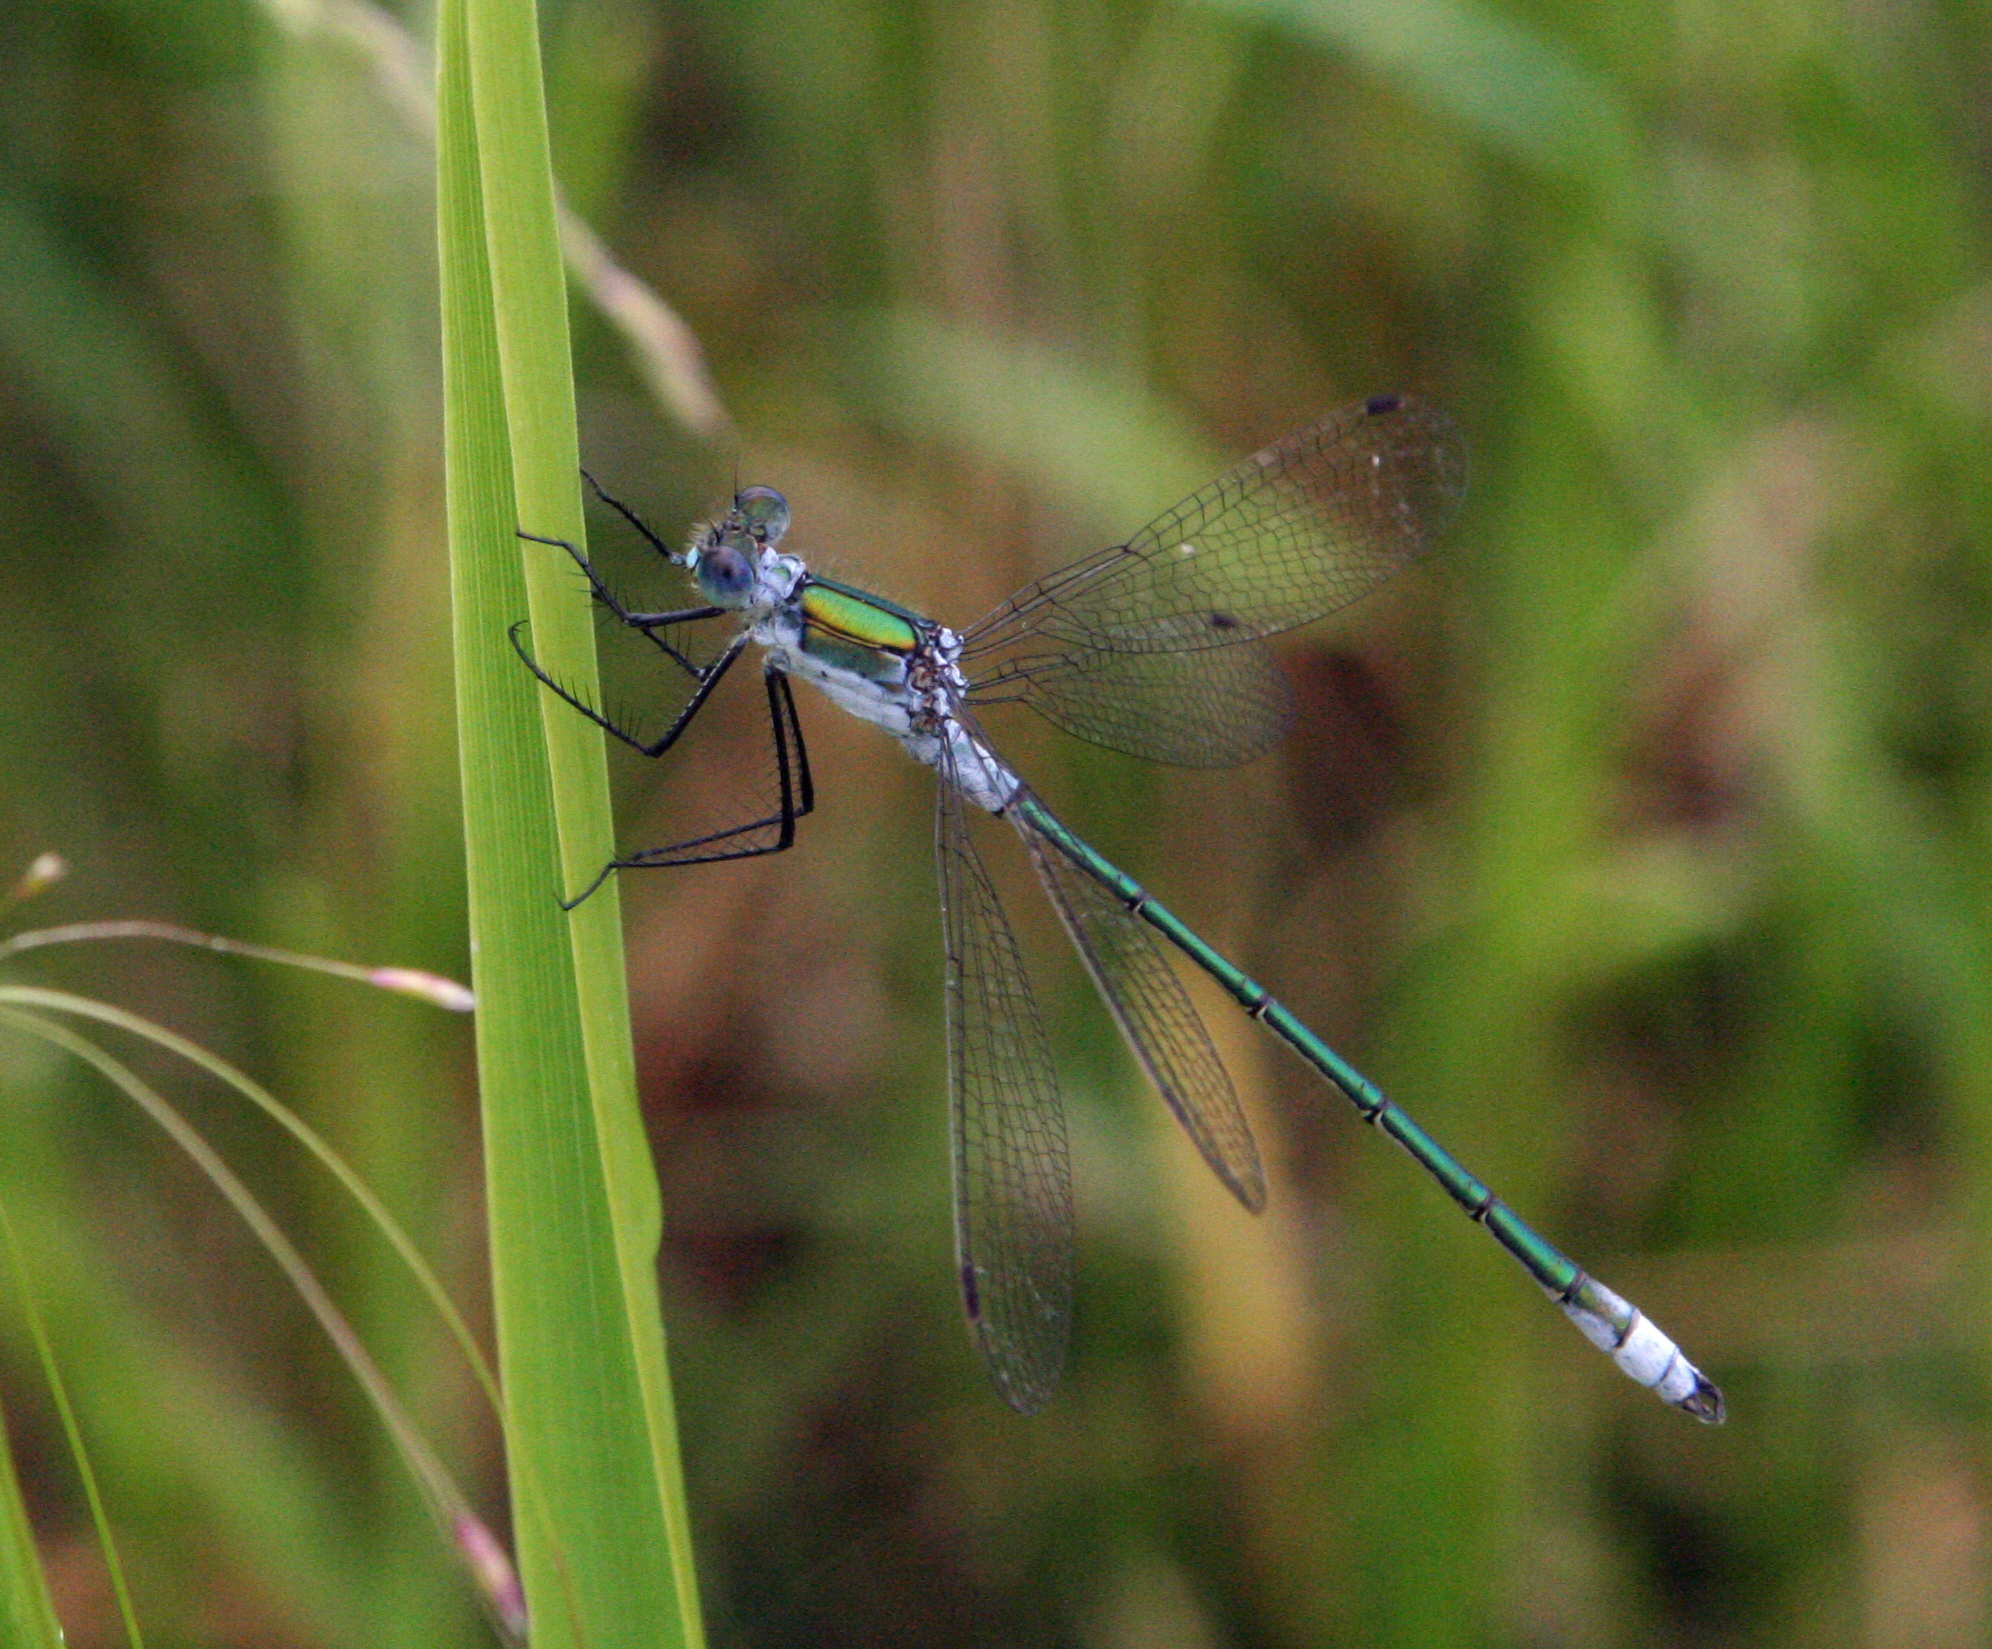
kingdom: Animalia
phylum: Arthropoda
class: Insecta
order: Odonata
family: Lestidae
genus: Lestes
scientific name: Lestes sponsa
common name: Common spreadwing
